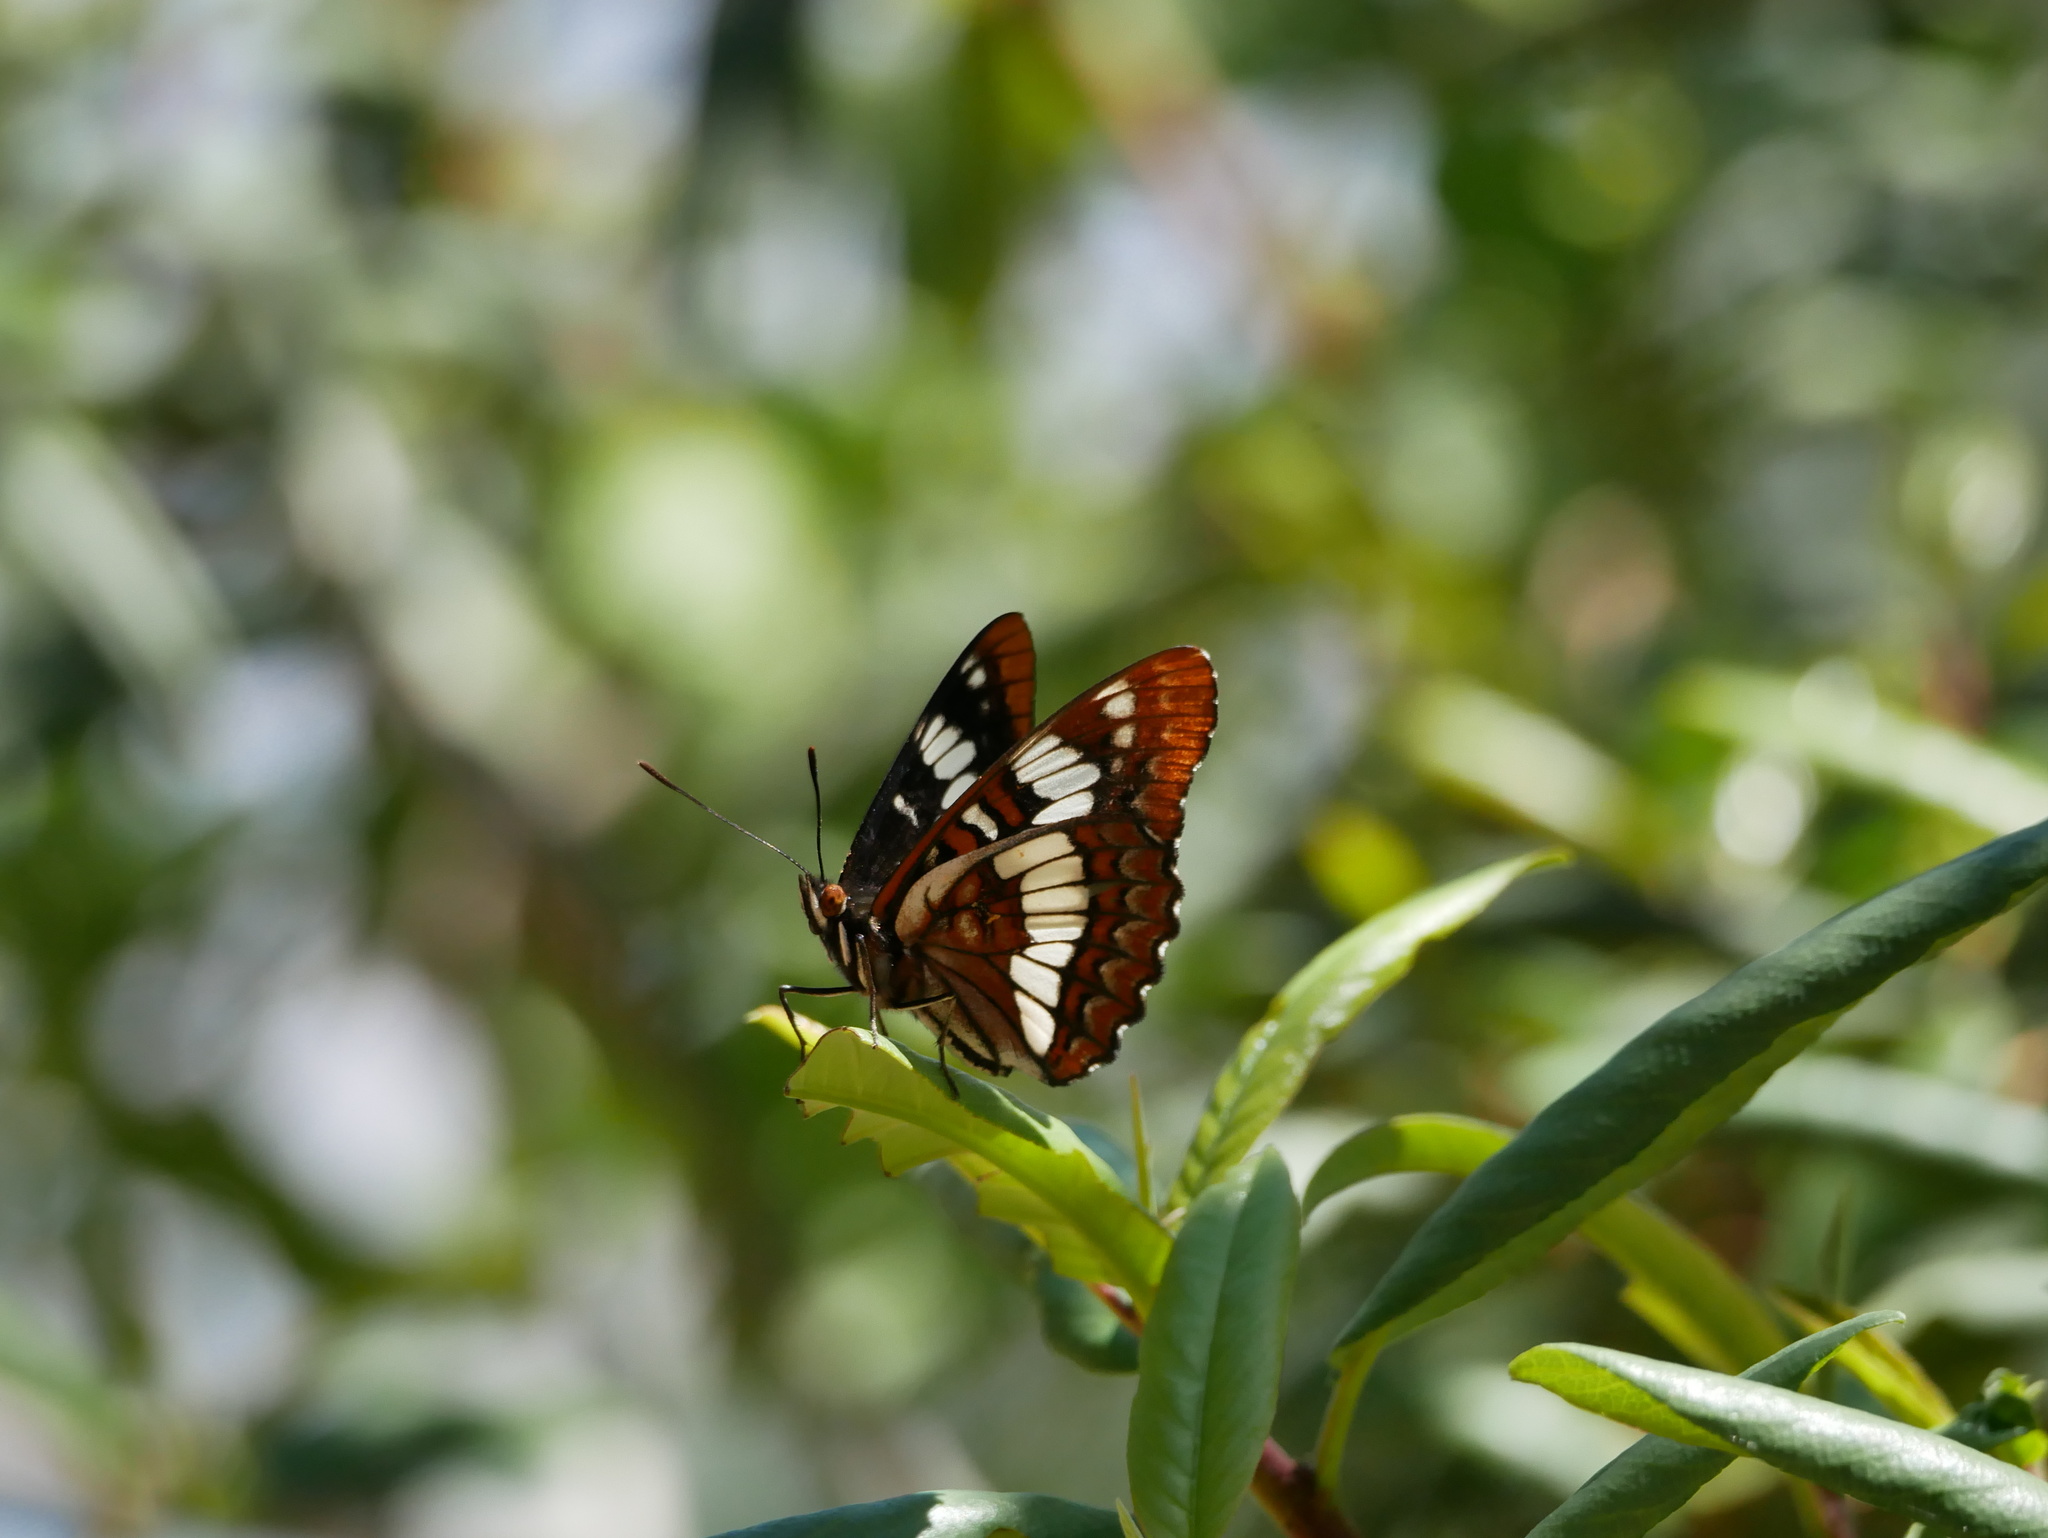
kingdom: Animalia
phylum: Arthropoda
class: Insecta
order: Lepidoptera
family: Nymphalidae
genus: Limenitis
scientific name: Limenitis lorquini
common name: Lorquin's admiral
